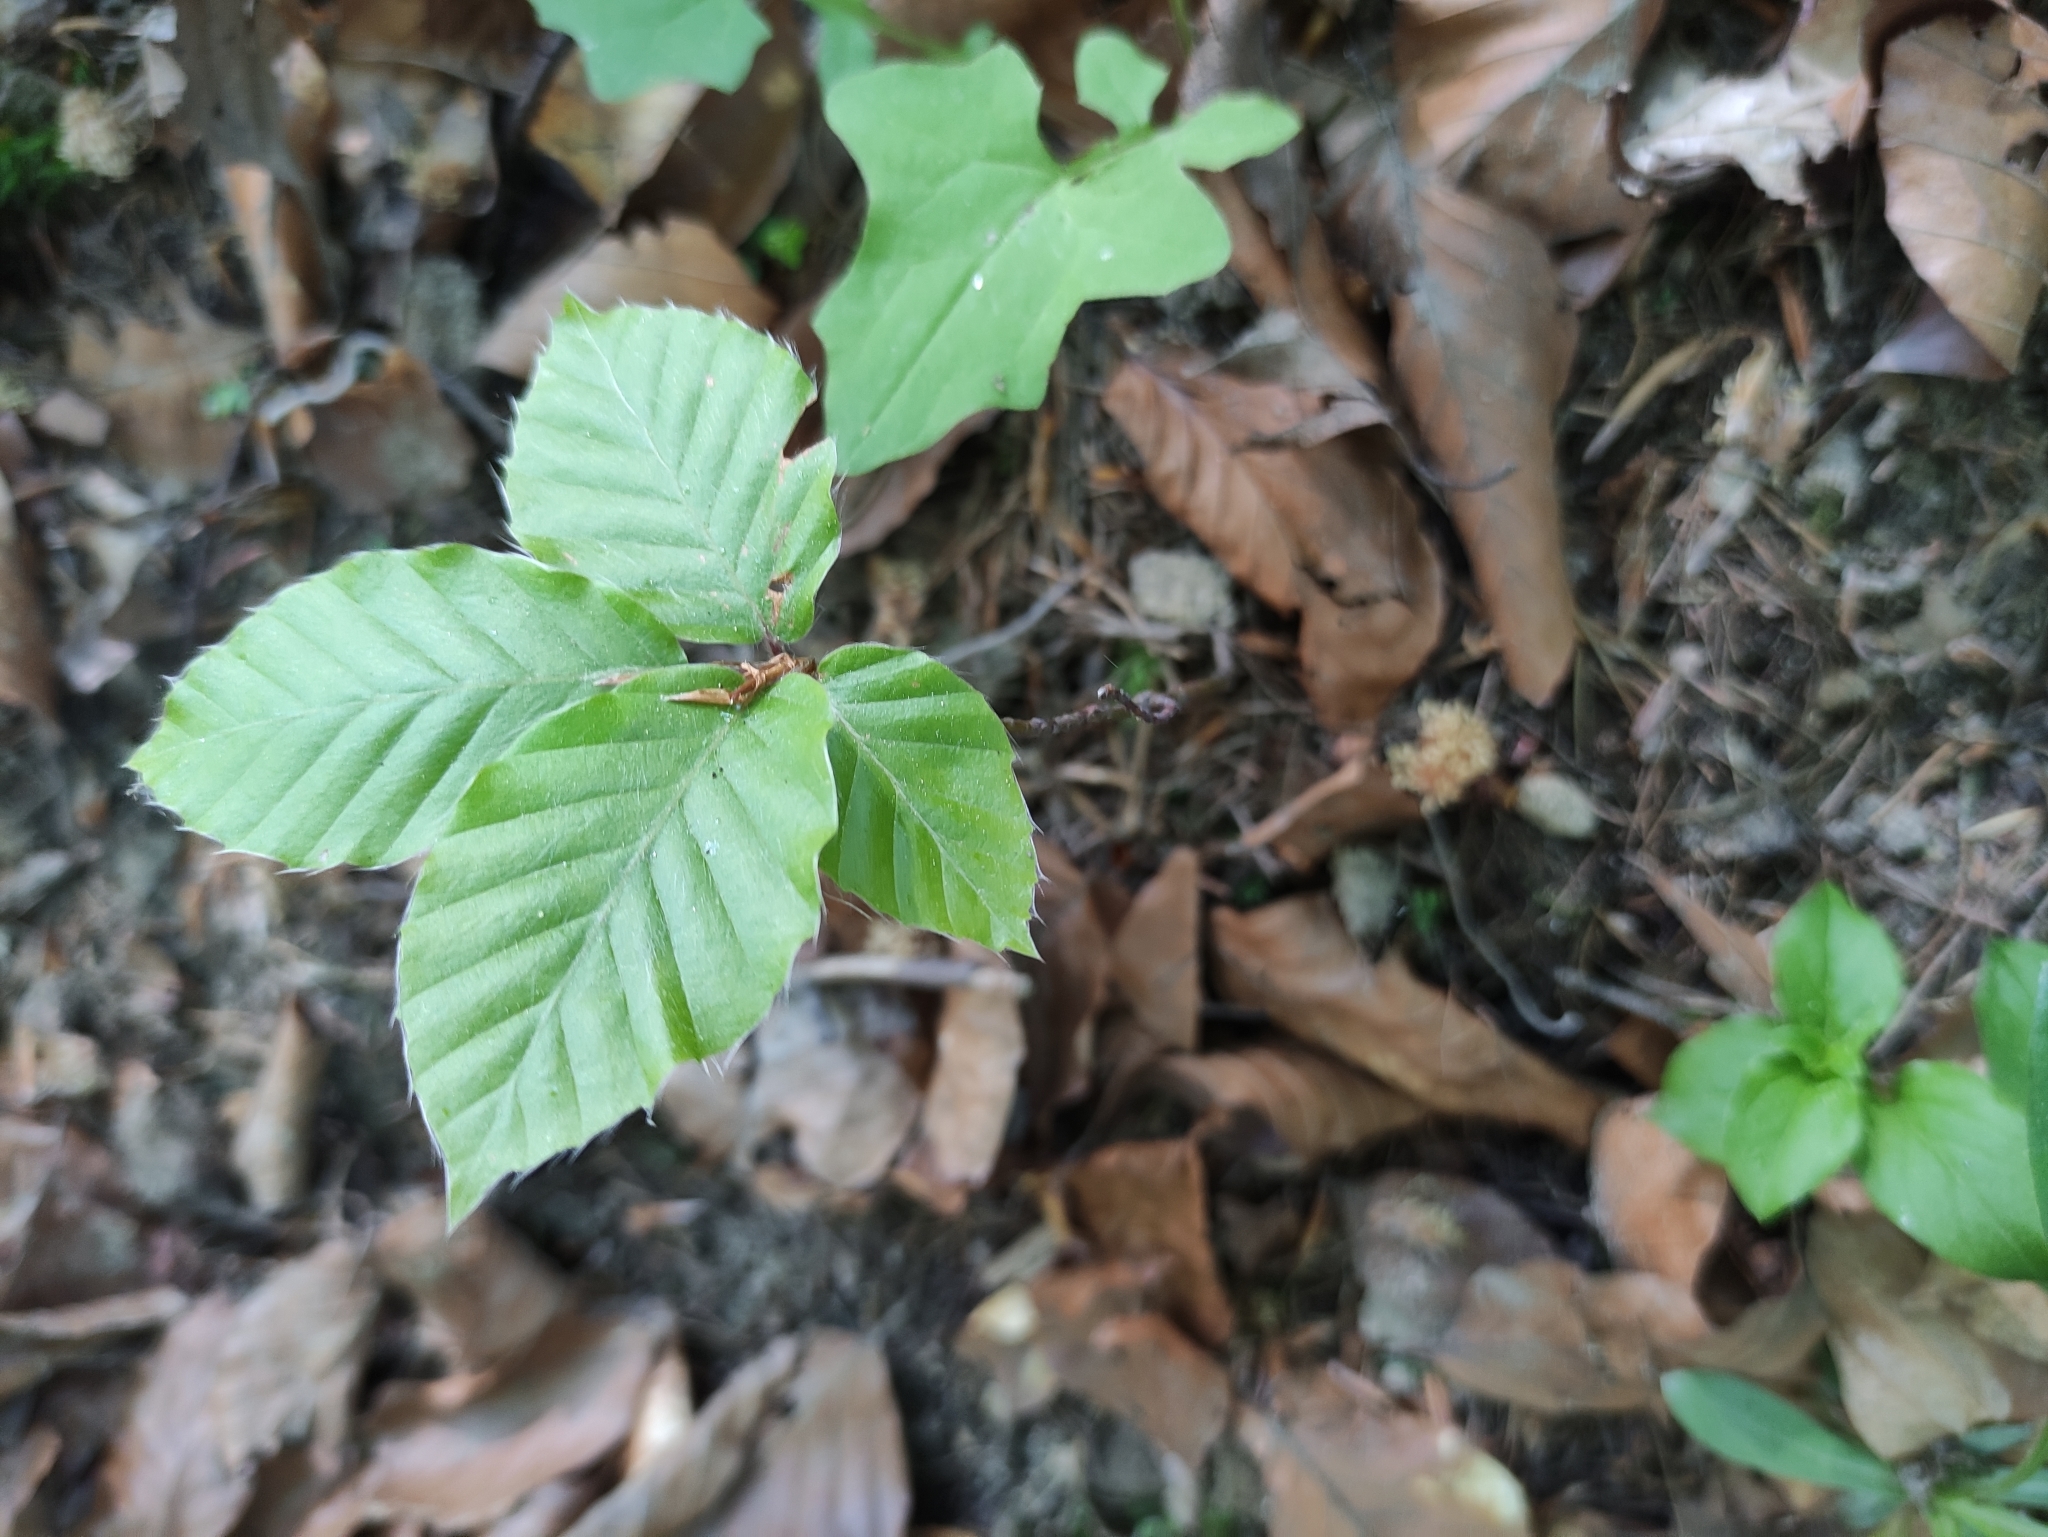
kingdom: Plantae
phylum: Tracheophyta
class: Magnoliopsida
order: Fagales
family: Fagaceae
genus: Fagus
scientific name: Fagus sylvatica
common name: Beech
